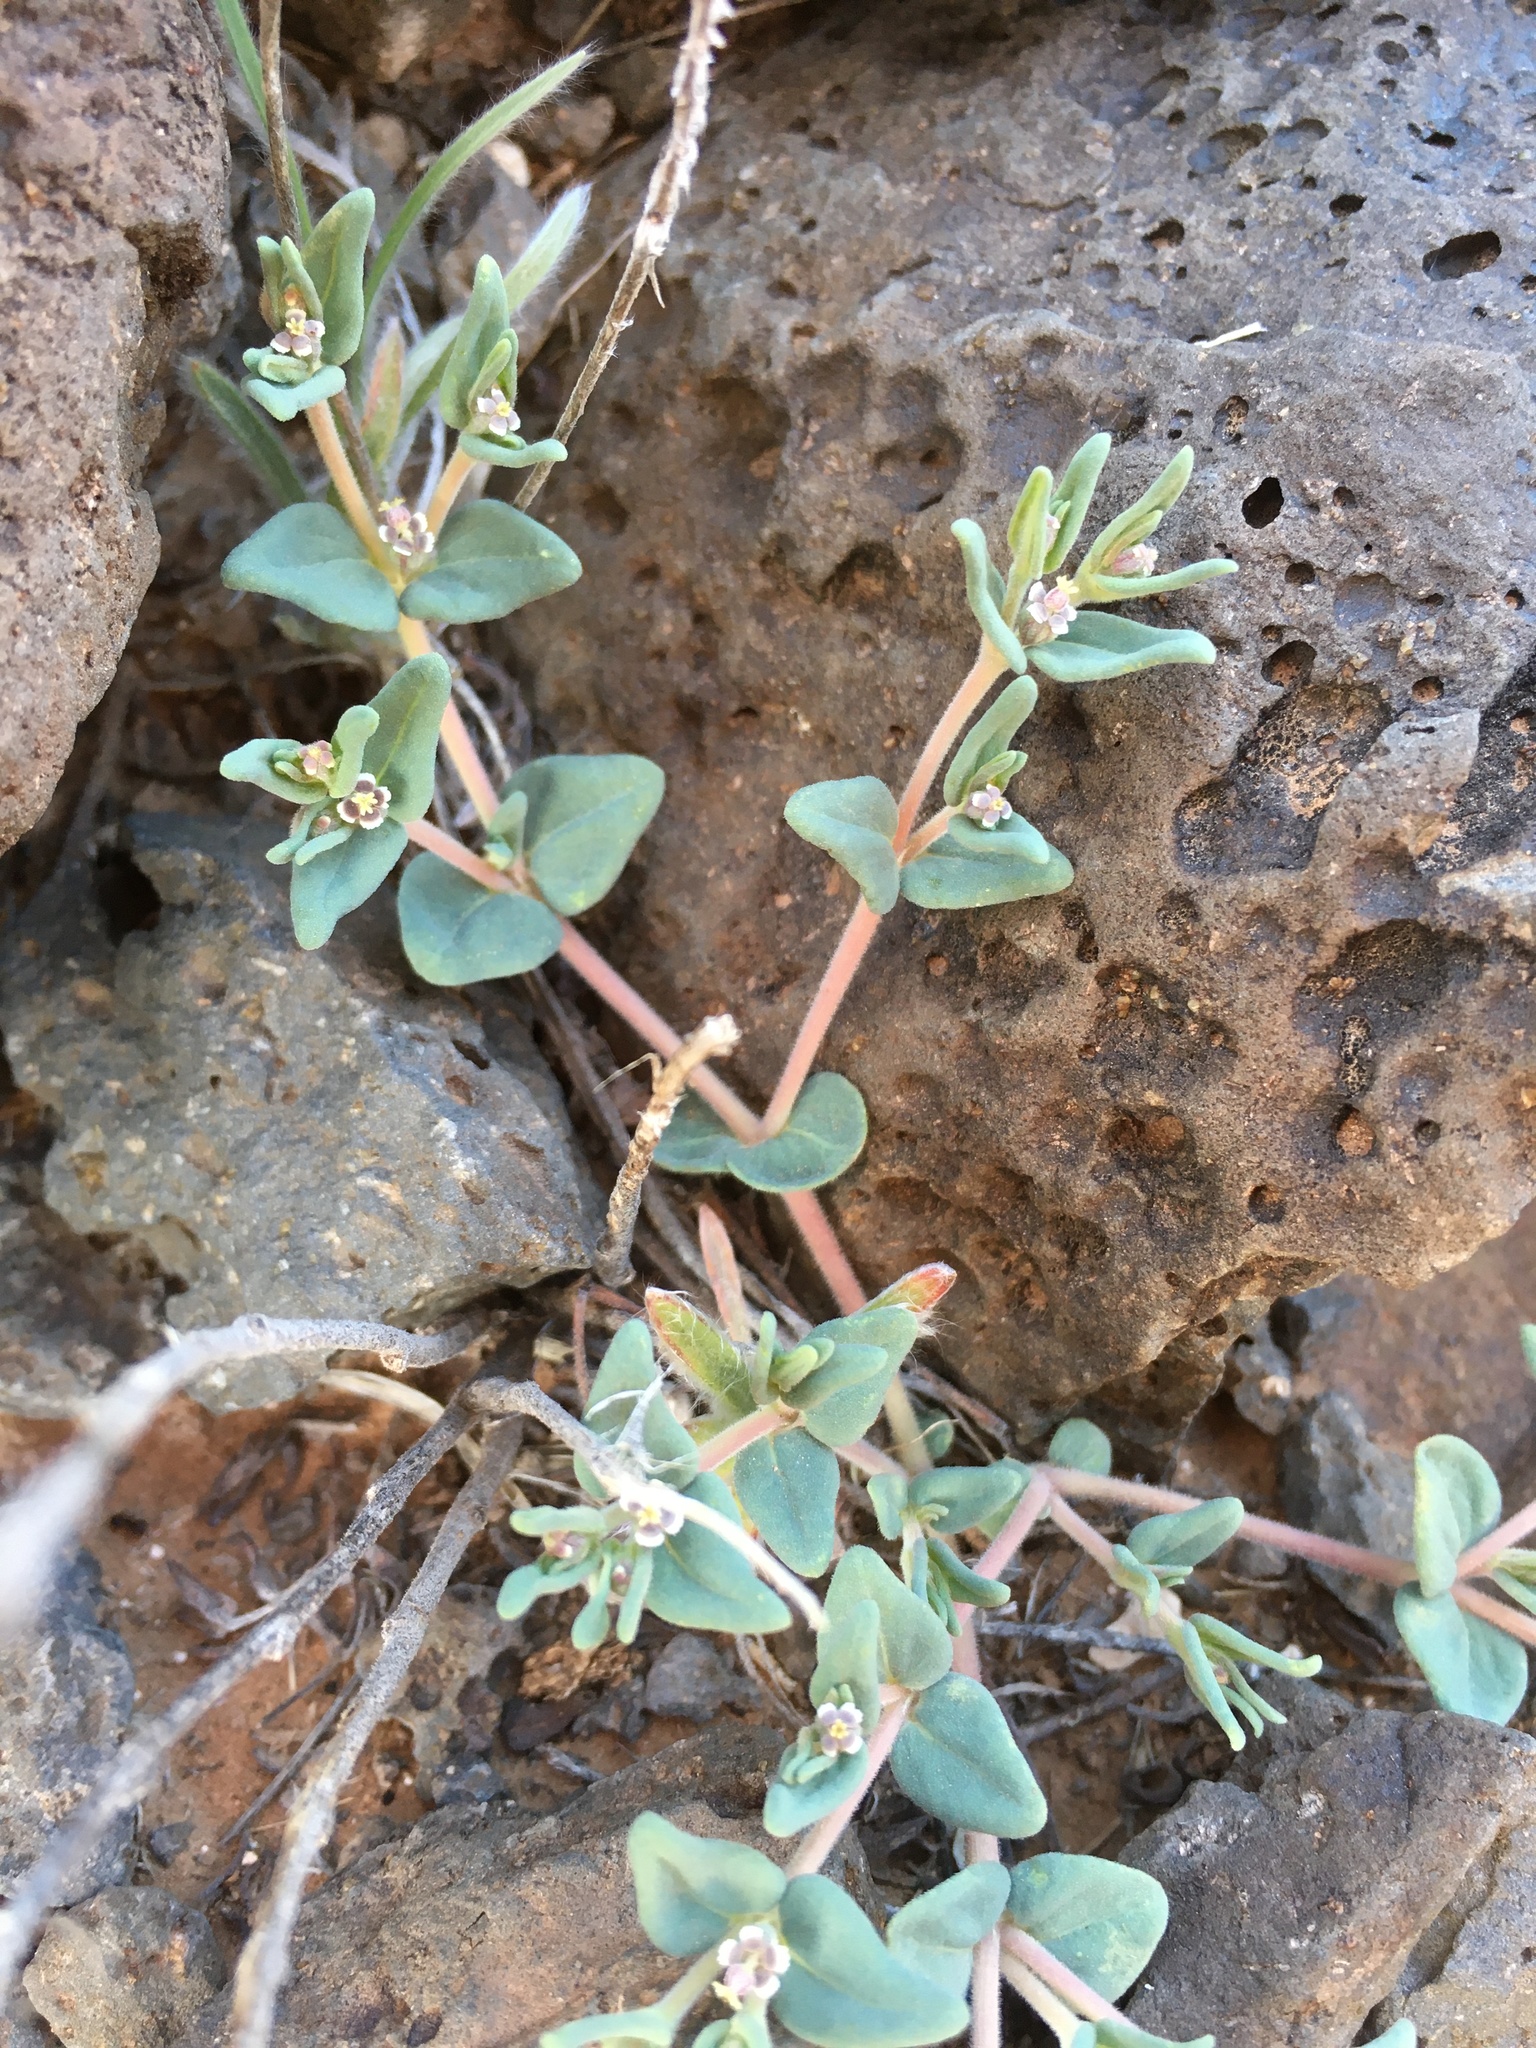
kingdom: Plantae
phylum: Tracheophyta
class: Magnoliopsida
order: Malpighiales
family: Euphorbiaceae
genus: Euphorbia
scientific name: Euphorbia lata
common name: Hoary euphorbia
